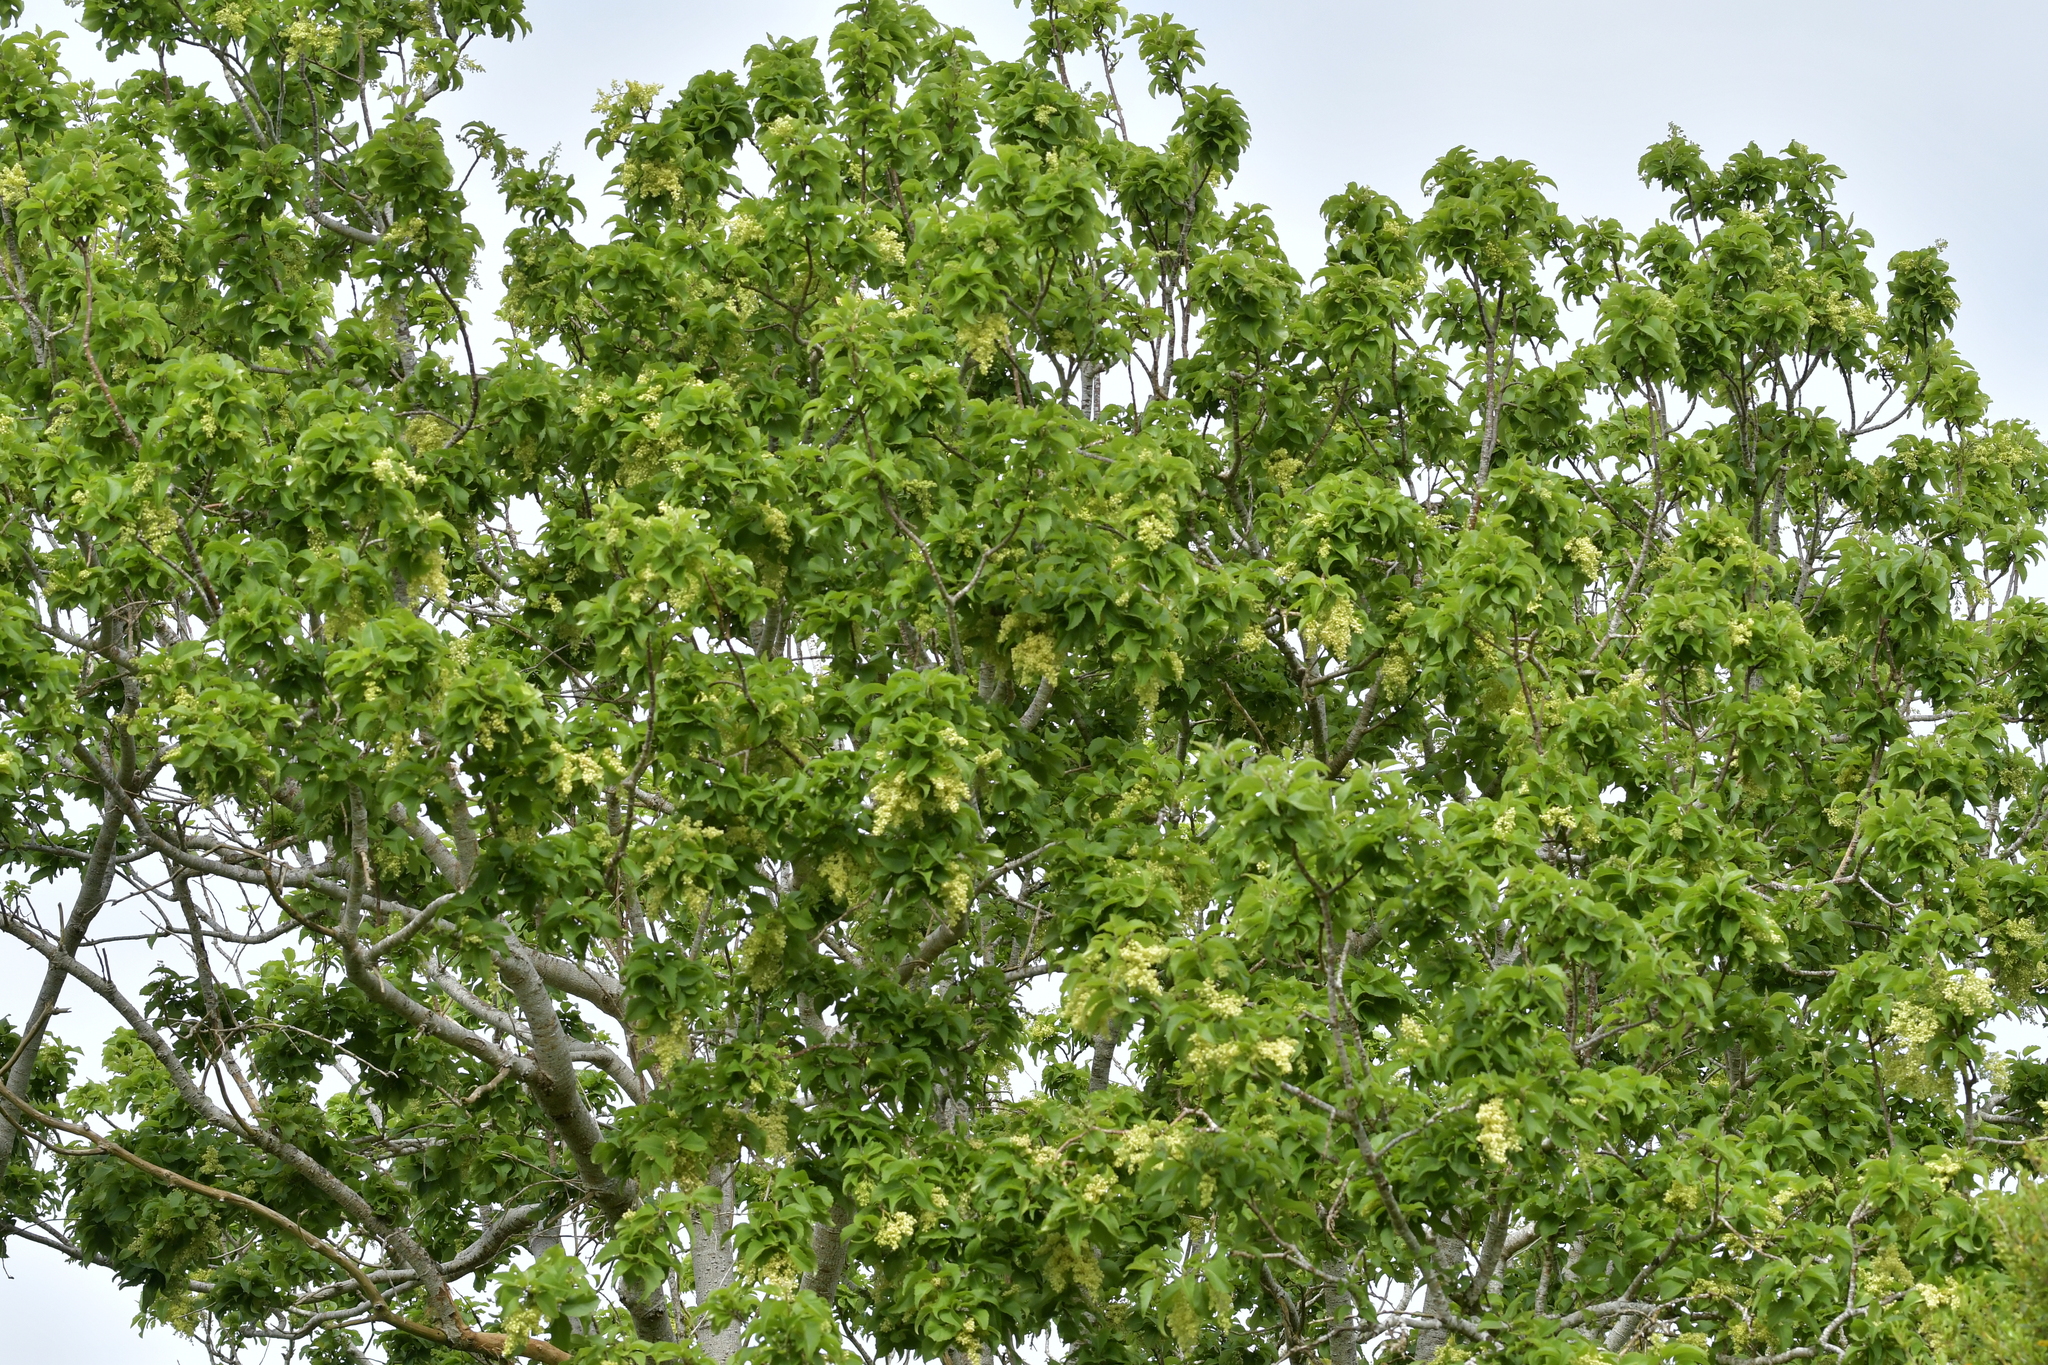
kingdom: Plantae
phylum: Tracheophyta
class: Magnoliopsida
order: Malvales
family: Malvaceae
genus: Plagianthus
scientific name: Plagianthus regius
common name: Manatu
